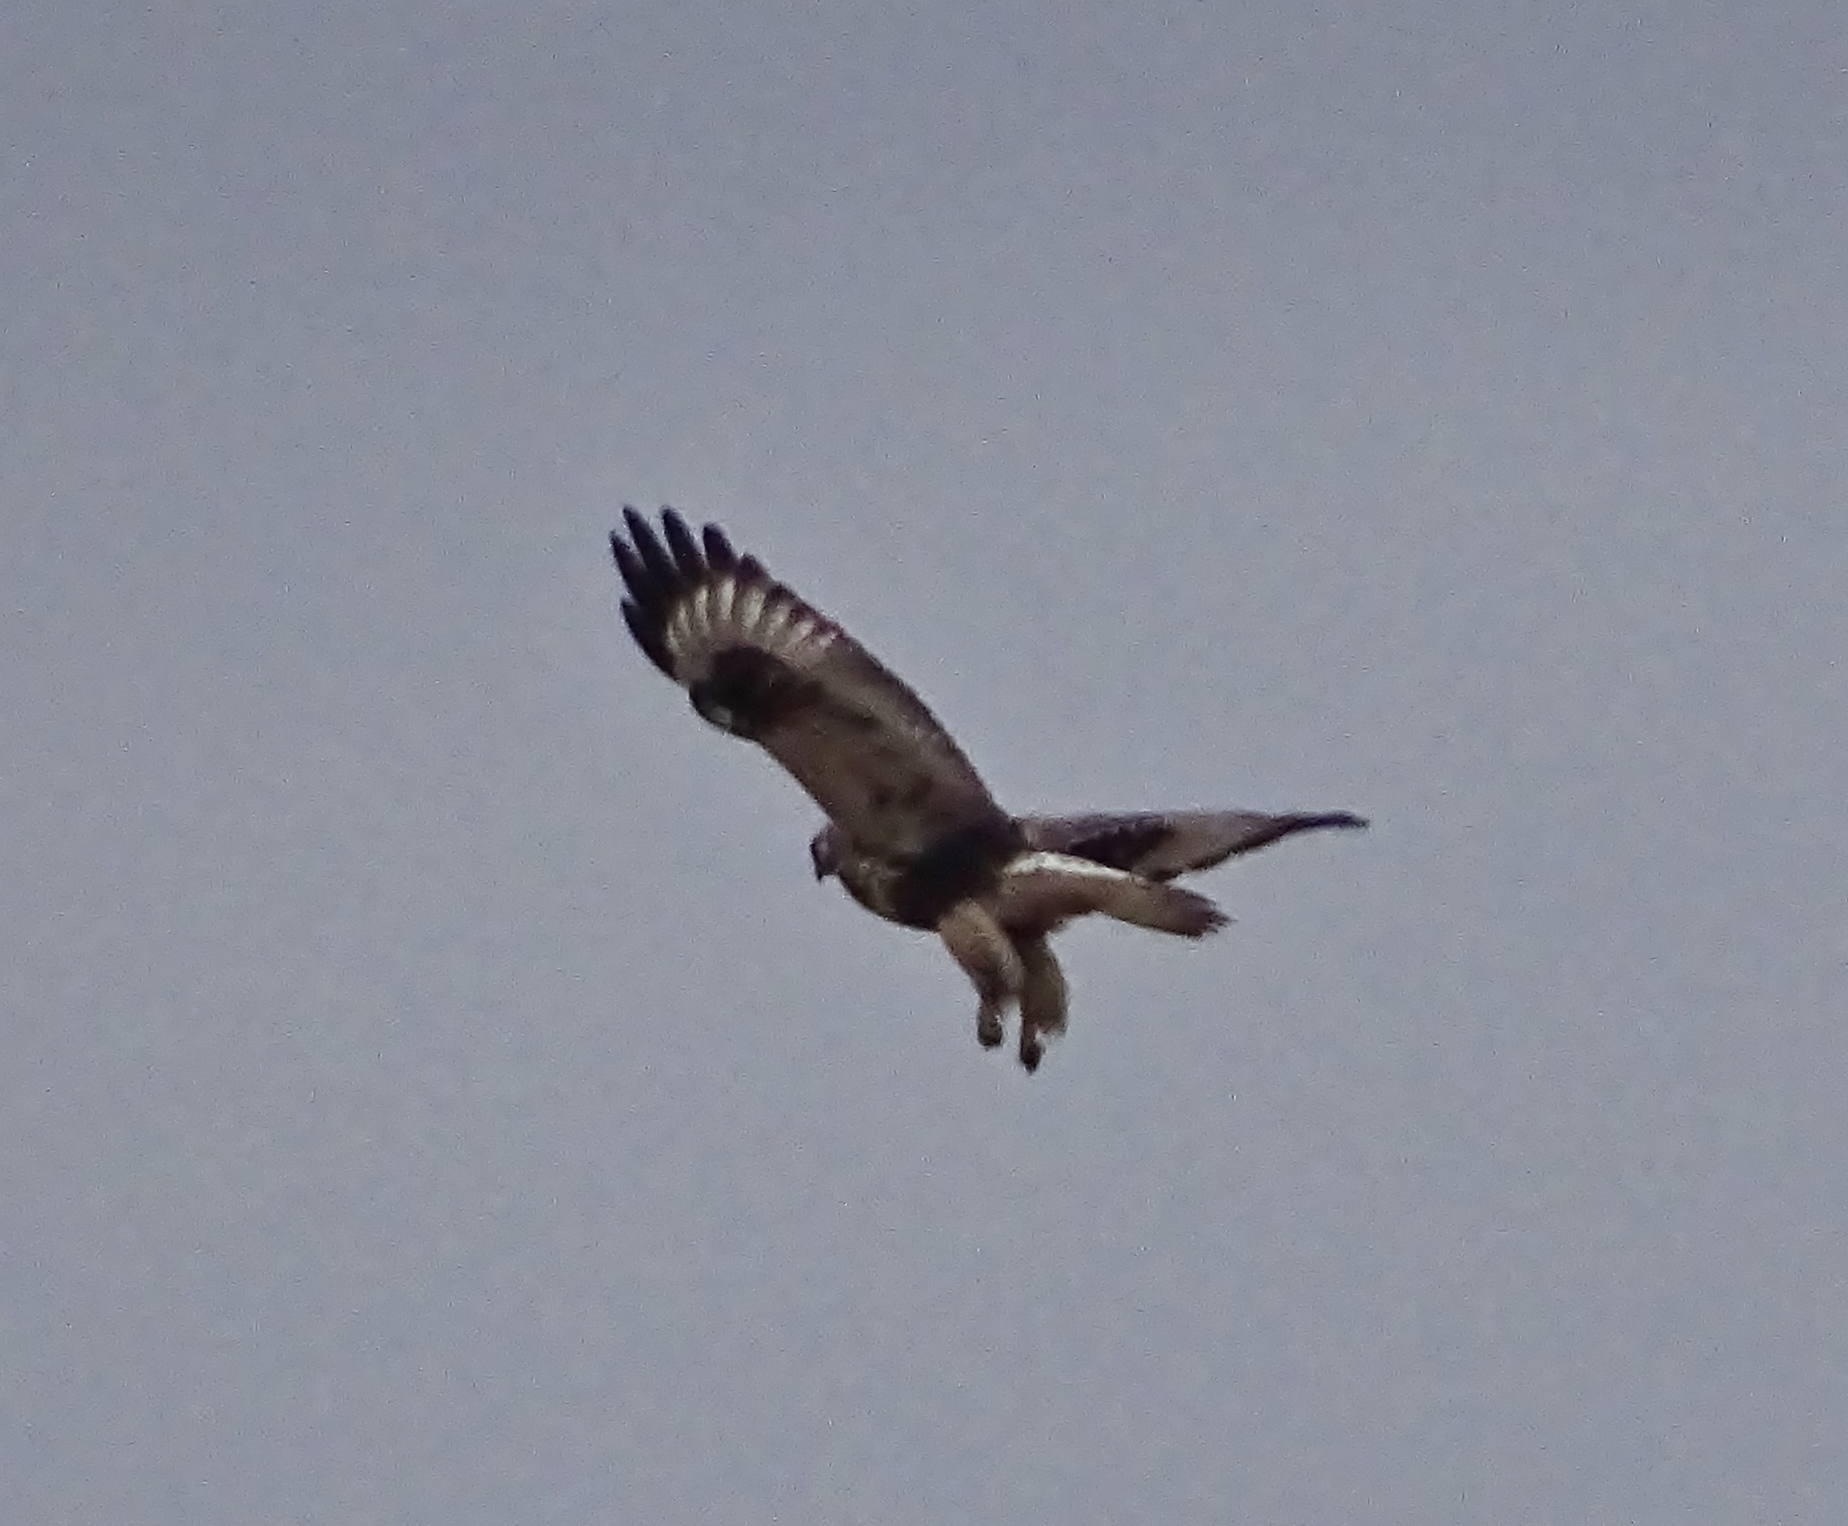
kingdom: Animalia
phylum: Chordata
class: Aves
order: Accipitriformes
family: Accipitridae
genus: Buteo
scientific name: Buteo lagopus
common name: Rough-legged buzzard
